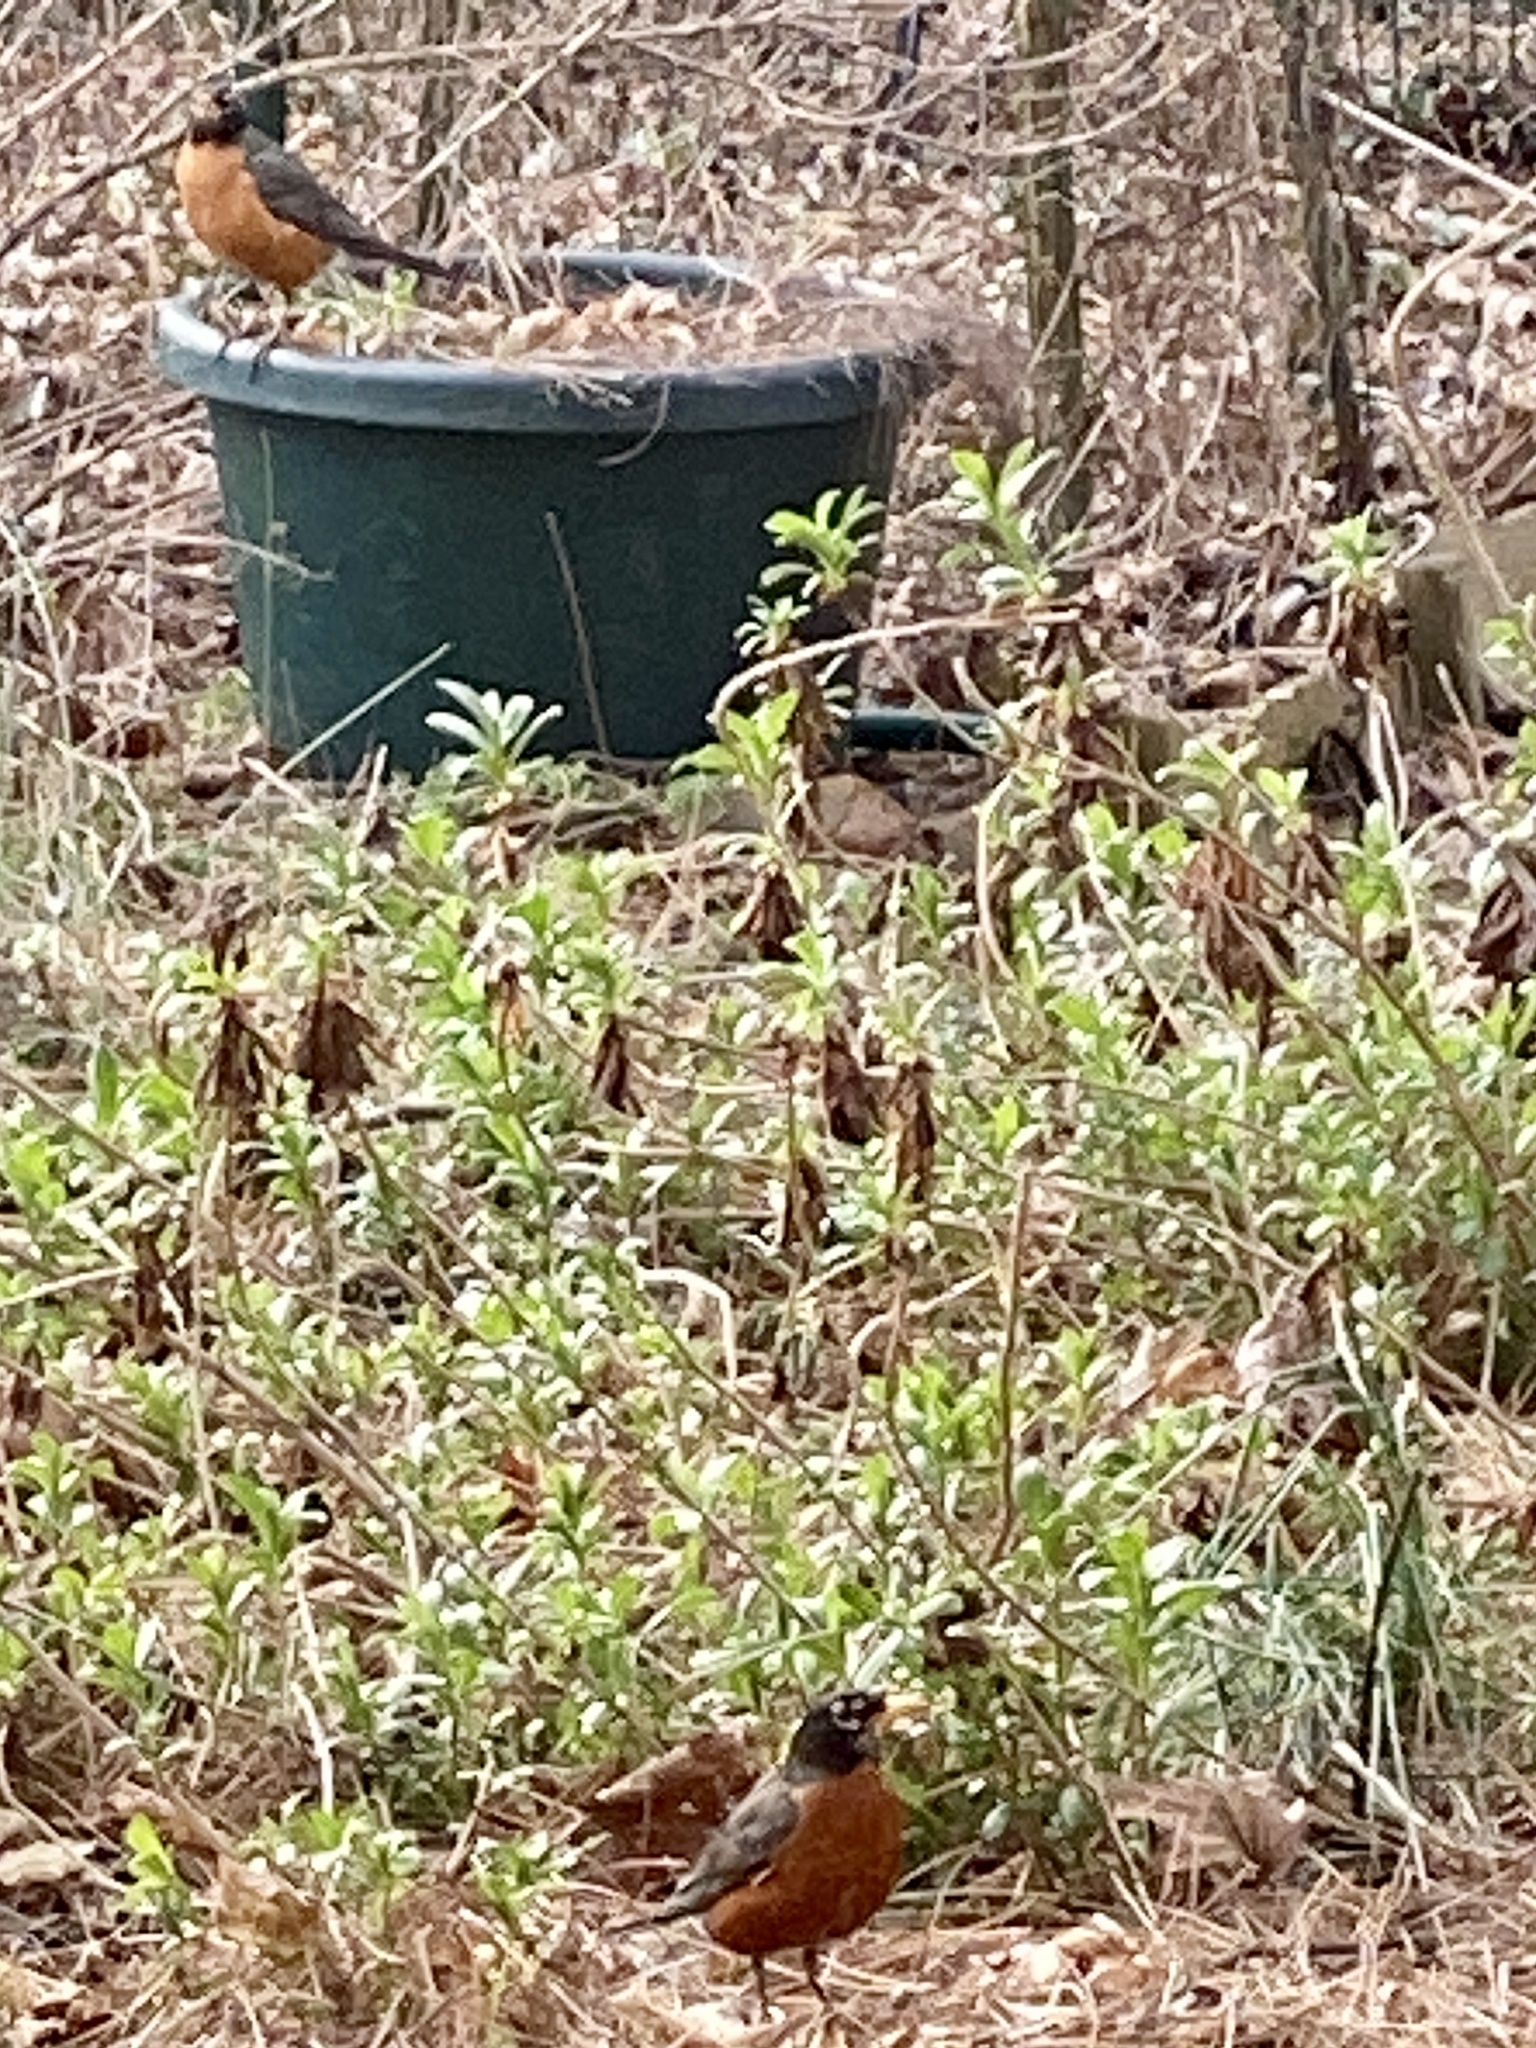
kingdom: Animalia
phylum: Chordata
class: Aves
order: Passeriformes
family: Turdidae
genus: Turdus
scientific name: Turdus migratorius
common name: American robin
